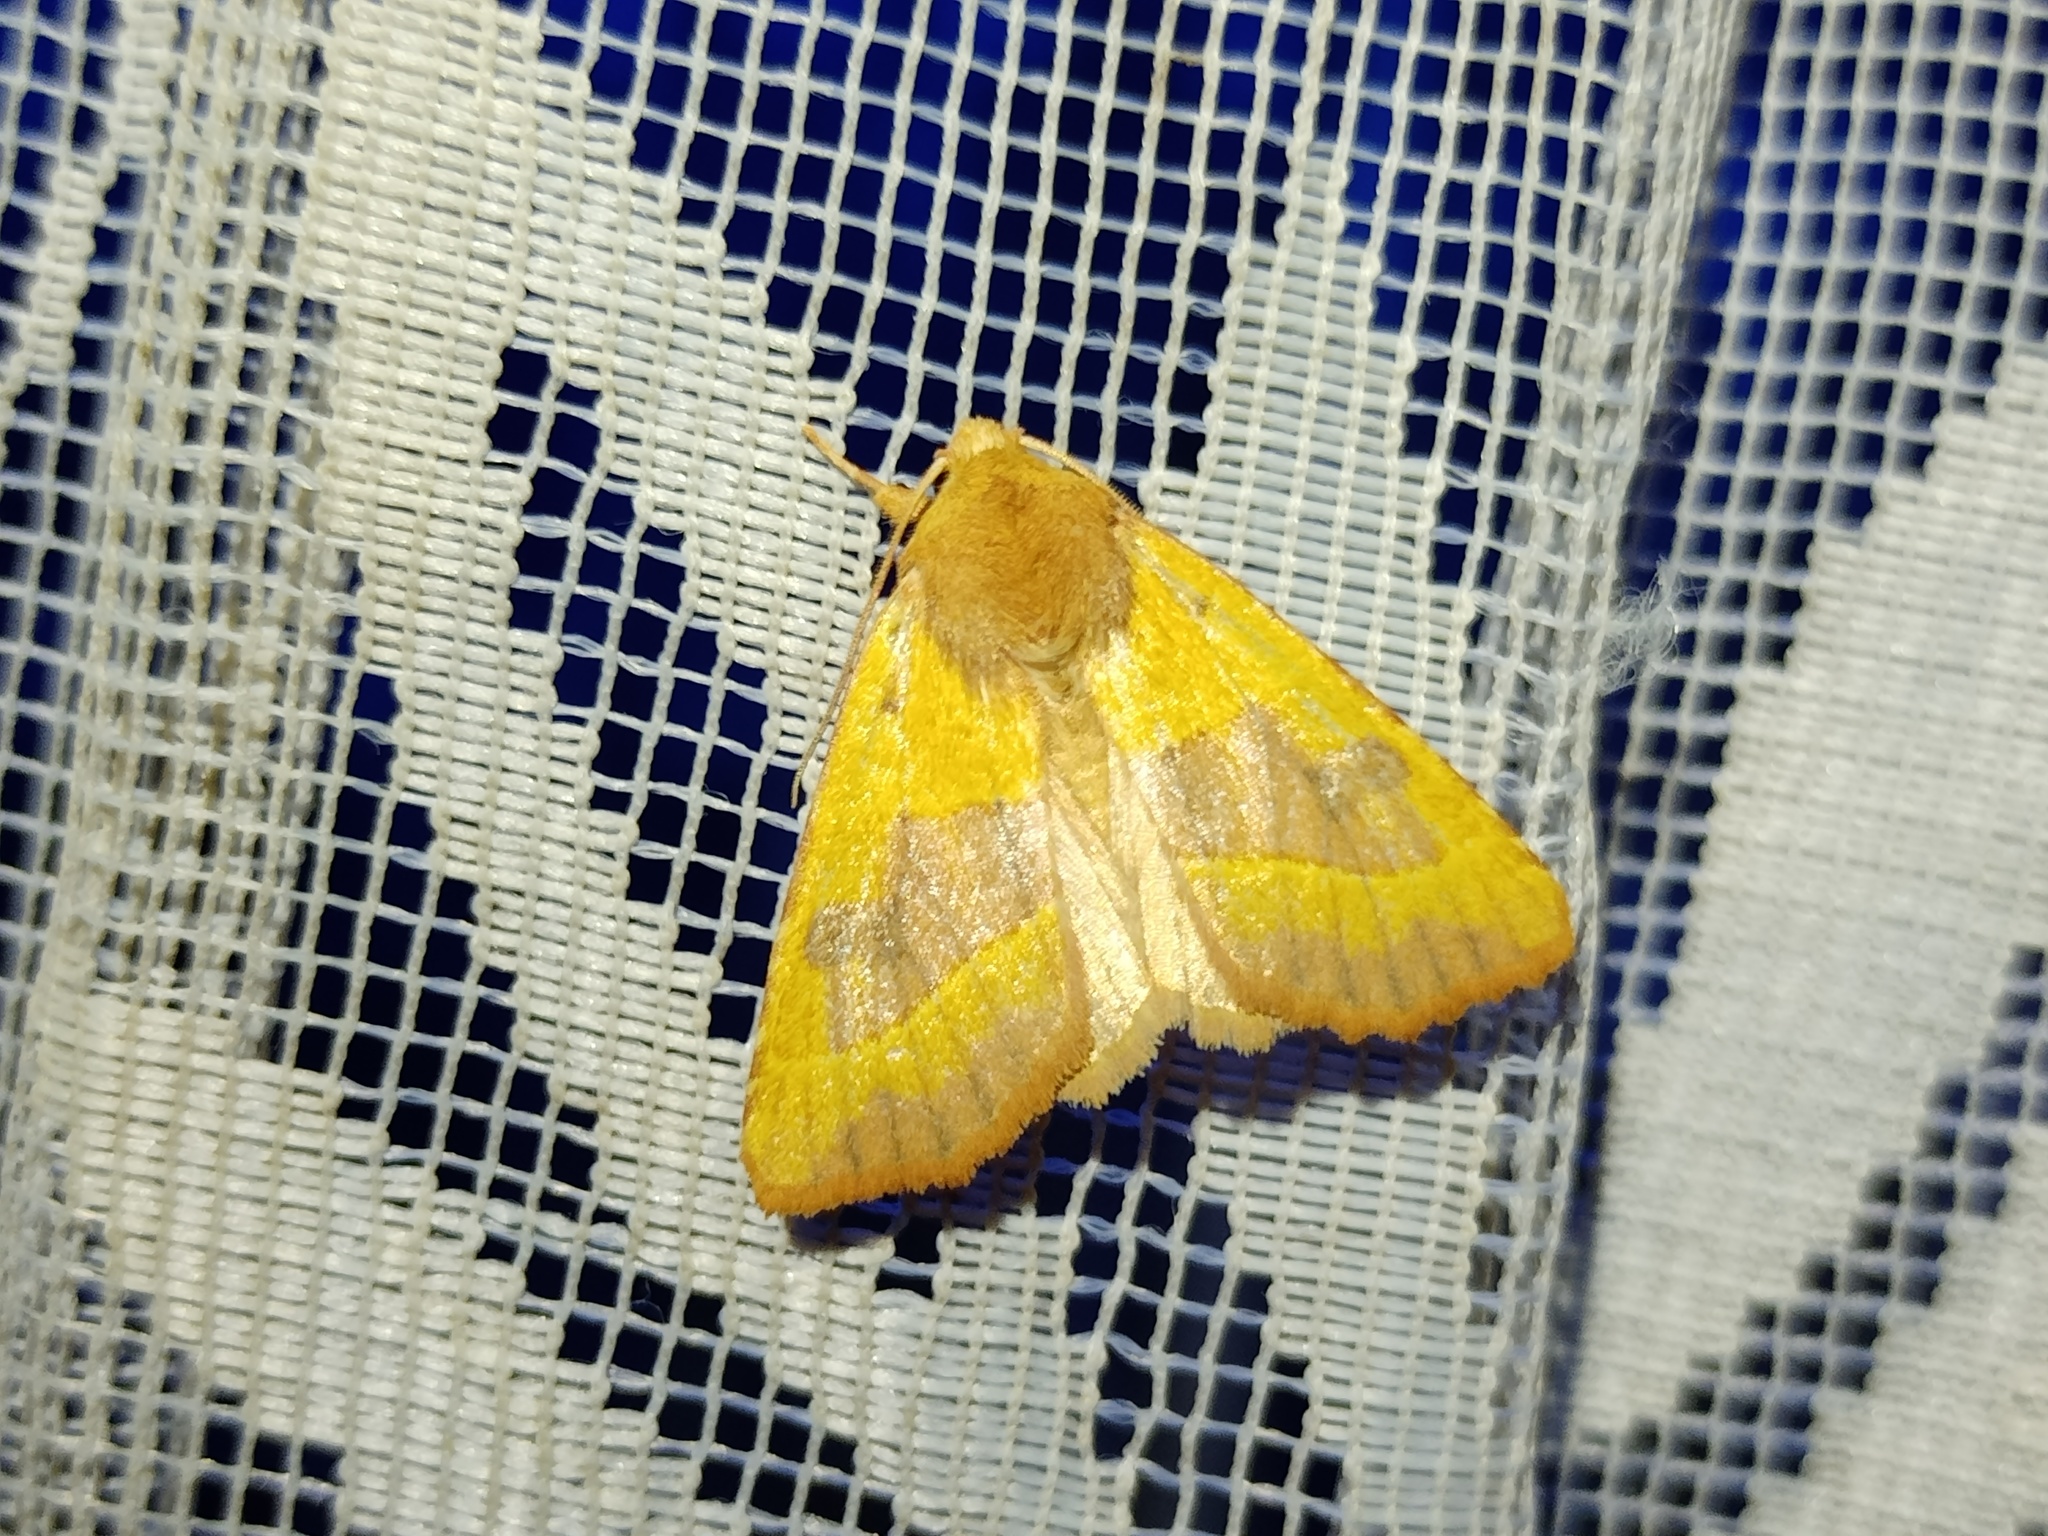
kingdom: Animalia
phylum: Arthropoda
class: Insecta
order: Lepidoptera
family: Noctuidae
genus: Atethmia
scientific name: Atethmia centrago
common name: Centre-barred sallow
